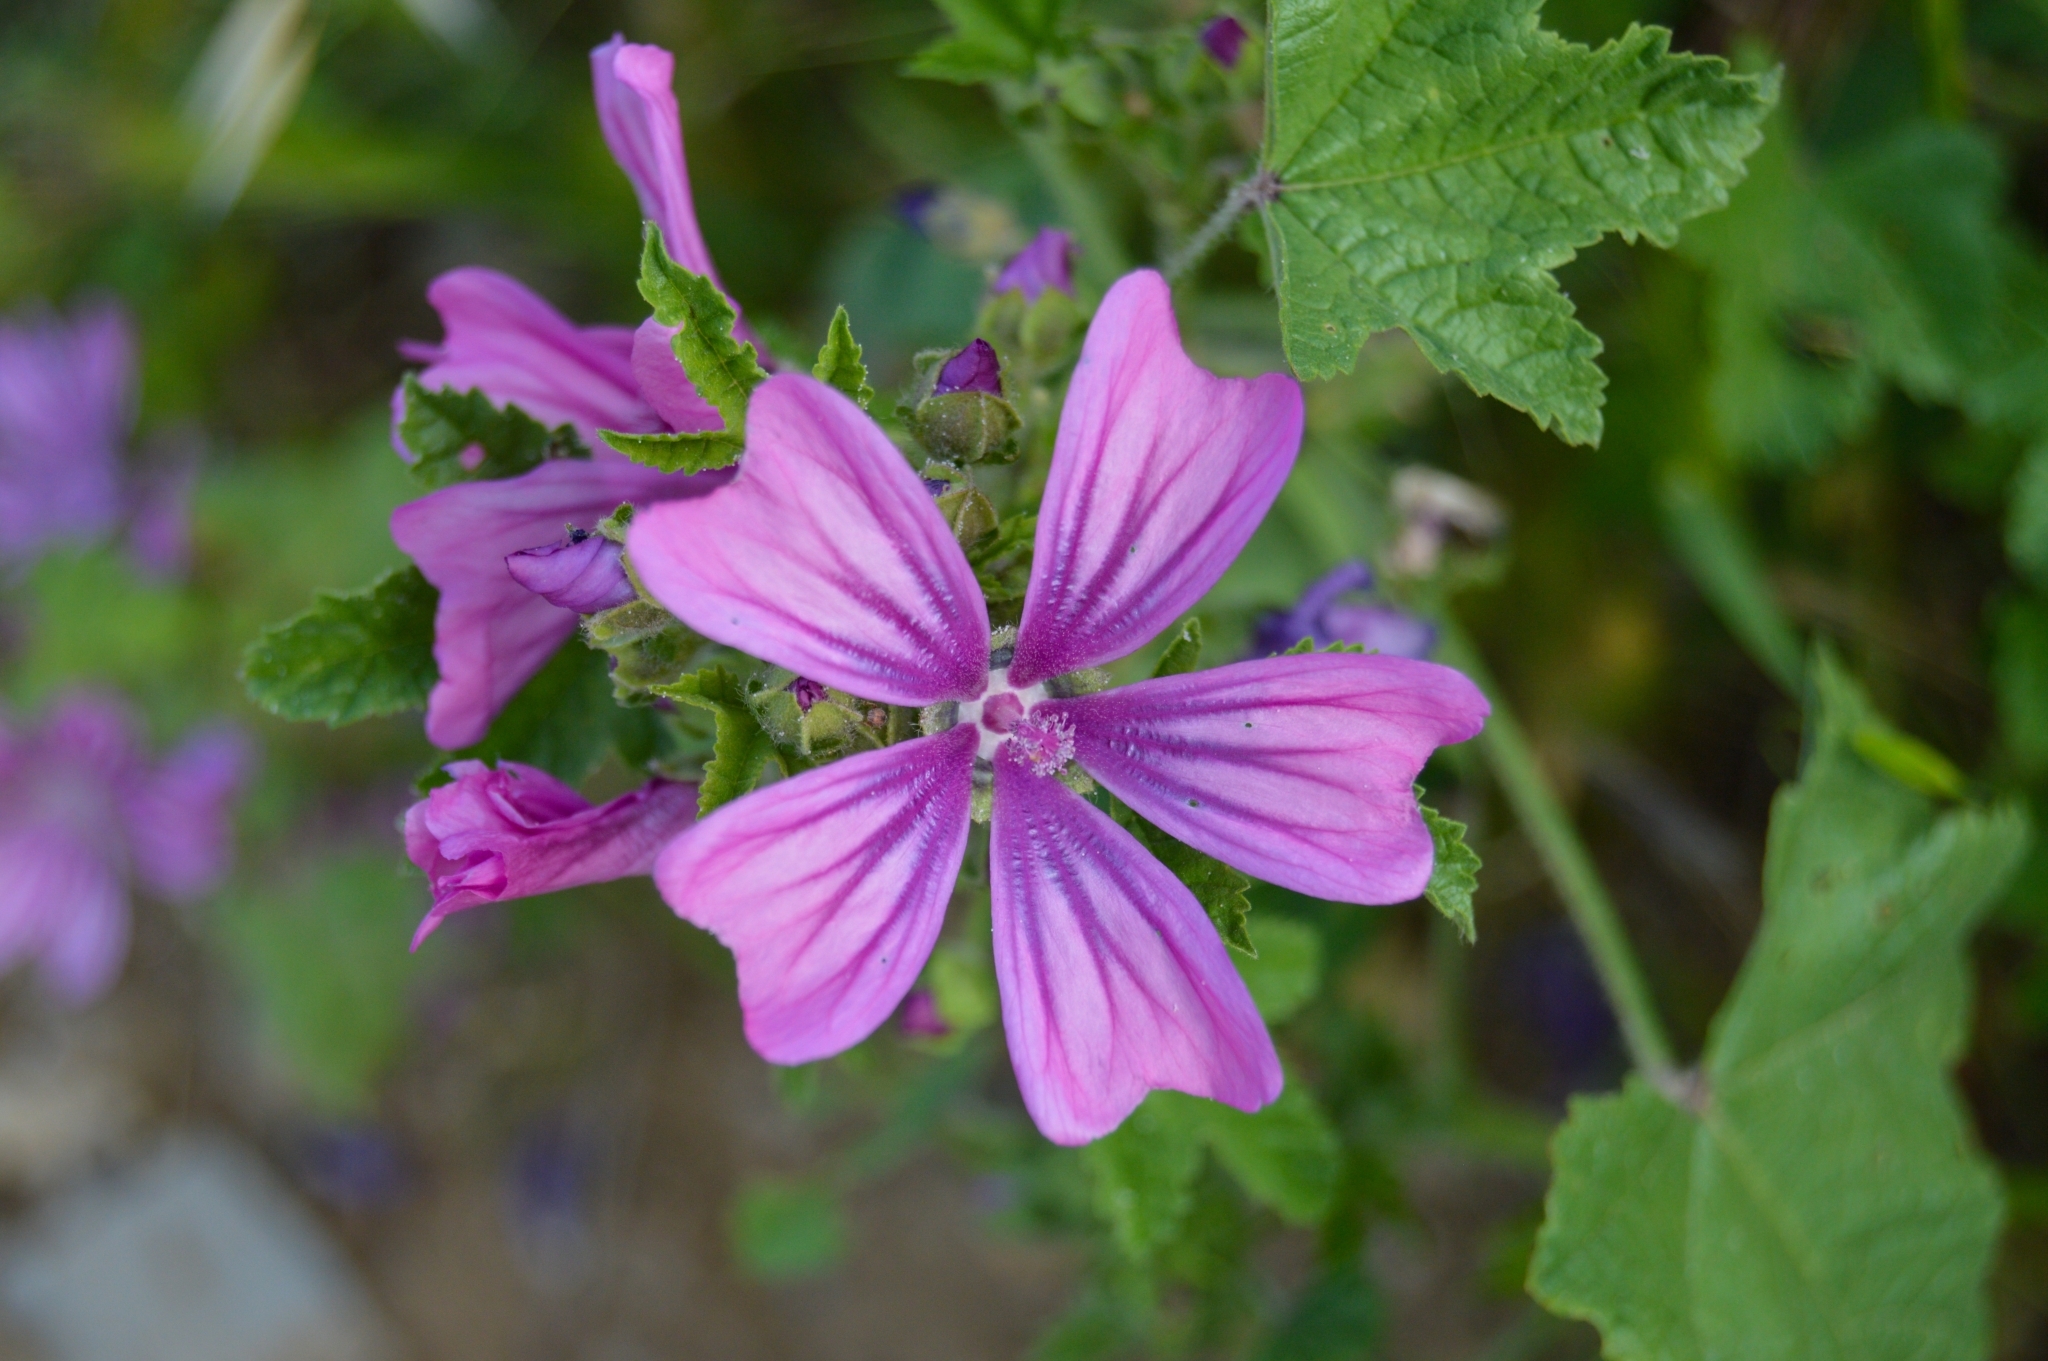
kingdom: Plantae
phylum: Tracheophyta
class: Magnoliopsida
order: Malvales
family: Malvaceae
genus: Malva
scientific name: Malva sylvestris
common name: Common mallow
